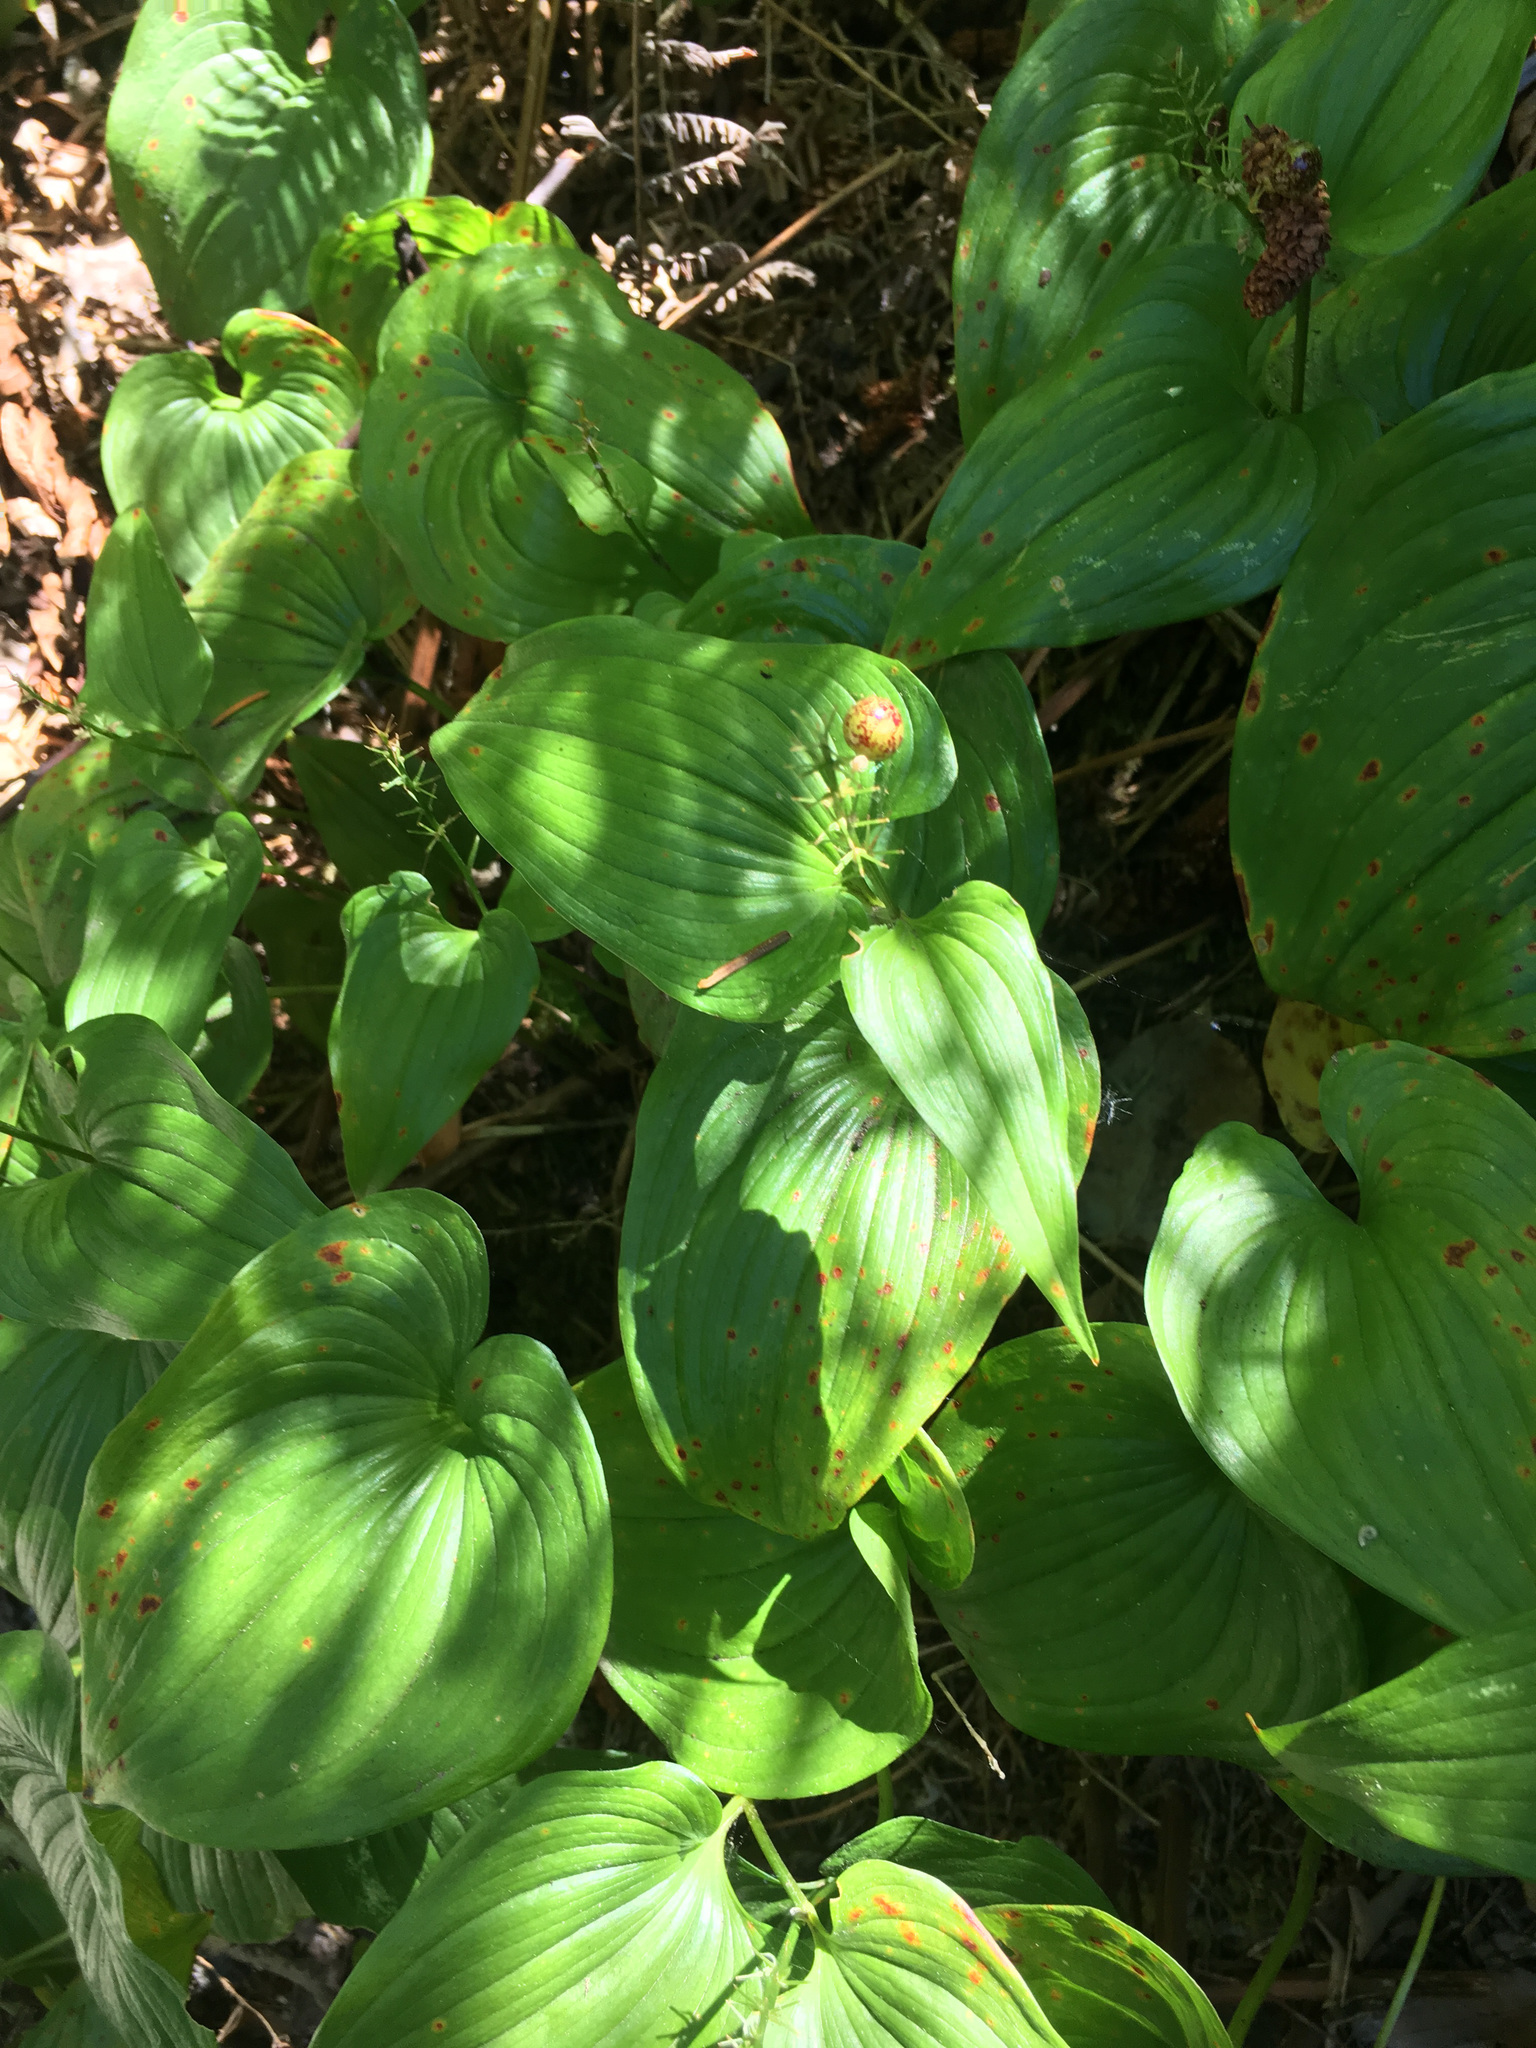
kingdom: Plantae
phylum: Tracheophyta
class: Liliopsida
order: Asparagales
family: Asparagaceae
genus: Maianthemum
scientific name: Maianthemum dilatatum
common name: False lily-of-the-valley
